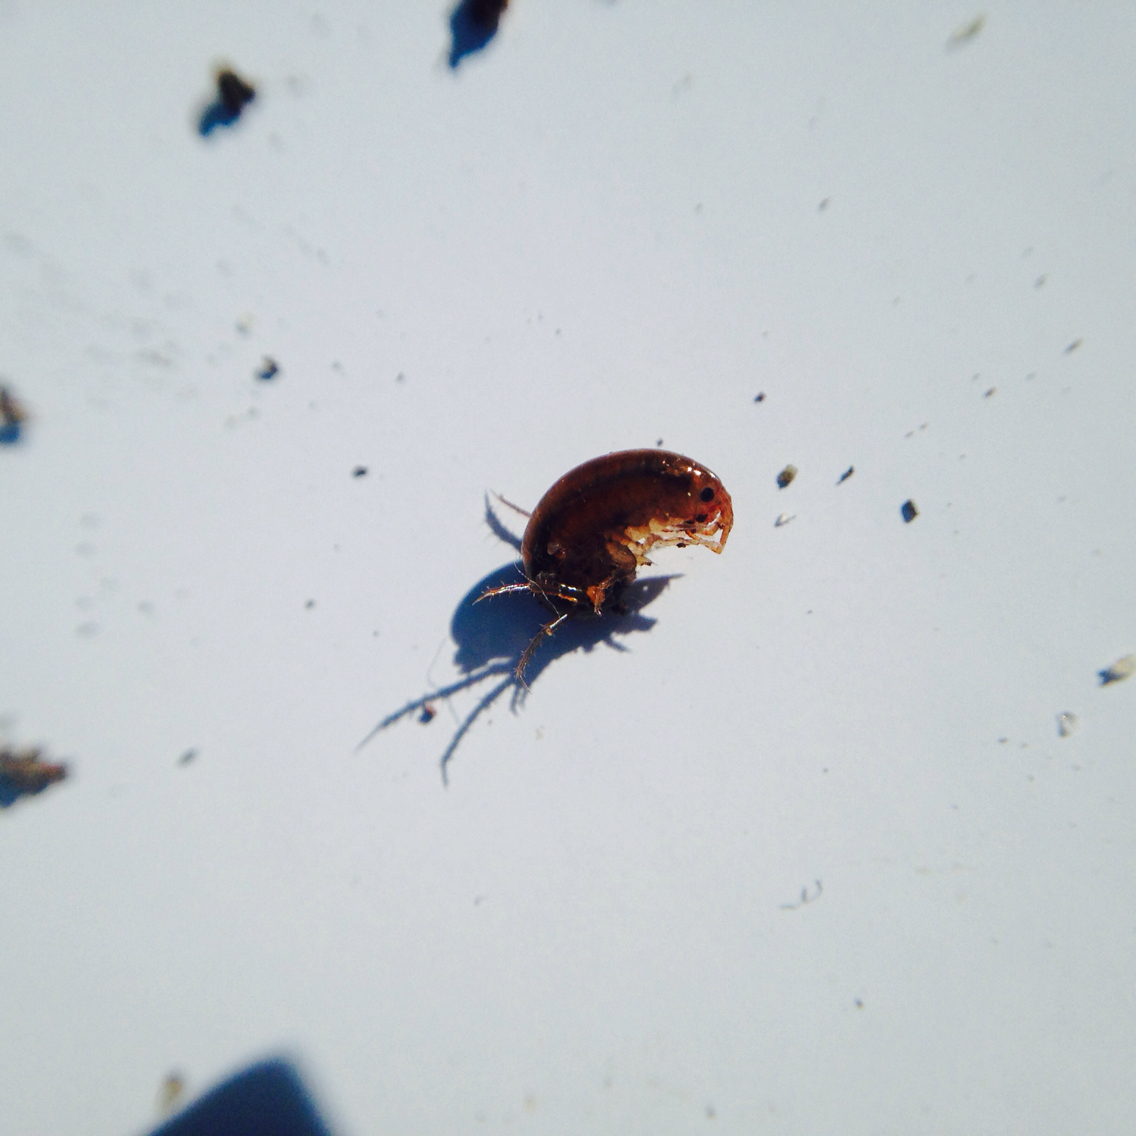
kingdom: Animalia
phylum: Arthropoda
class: Malacostraca
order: Amphipoda
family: Arcitalitridae
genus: Arcitalitrus
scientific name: Arcitalitrus sylvaticus
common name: Gammarid amphipod
